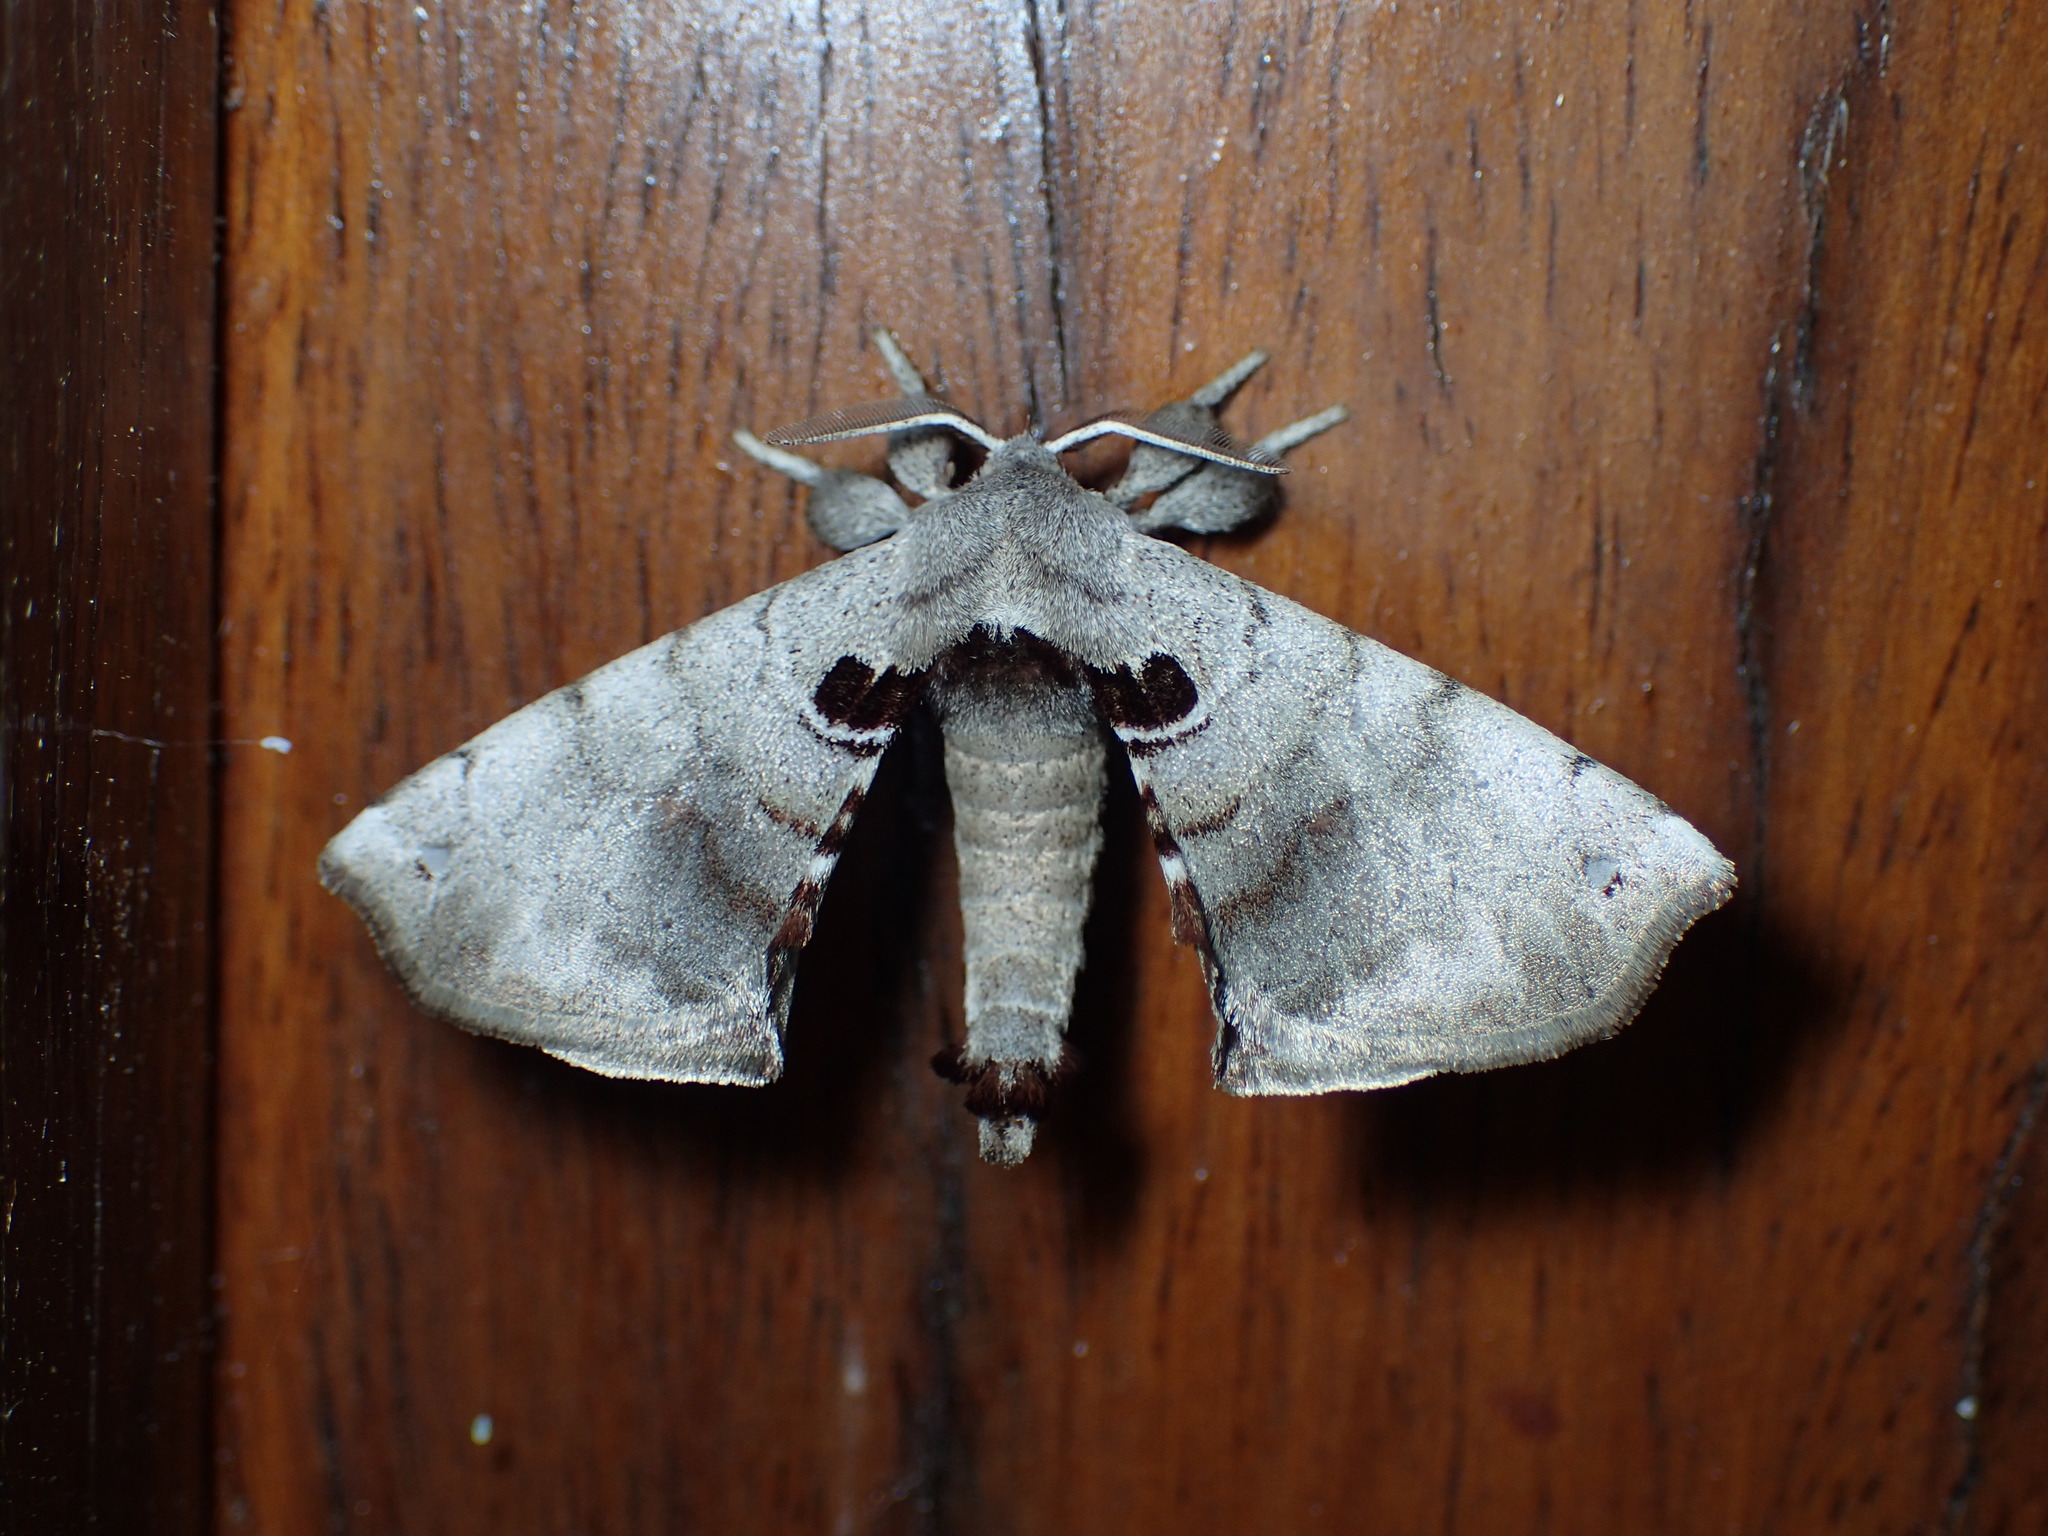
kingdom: Animalia
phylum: Arthropoda
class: Insecta
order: Lepidoptera
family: Apatelodidae
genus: Hygrochroa
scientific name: Hygrochroa Apatelodes torrefacta
